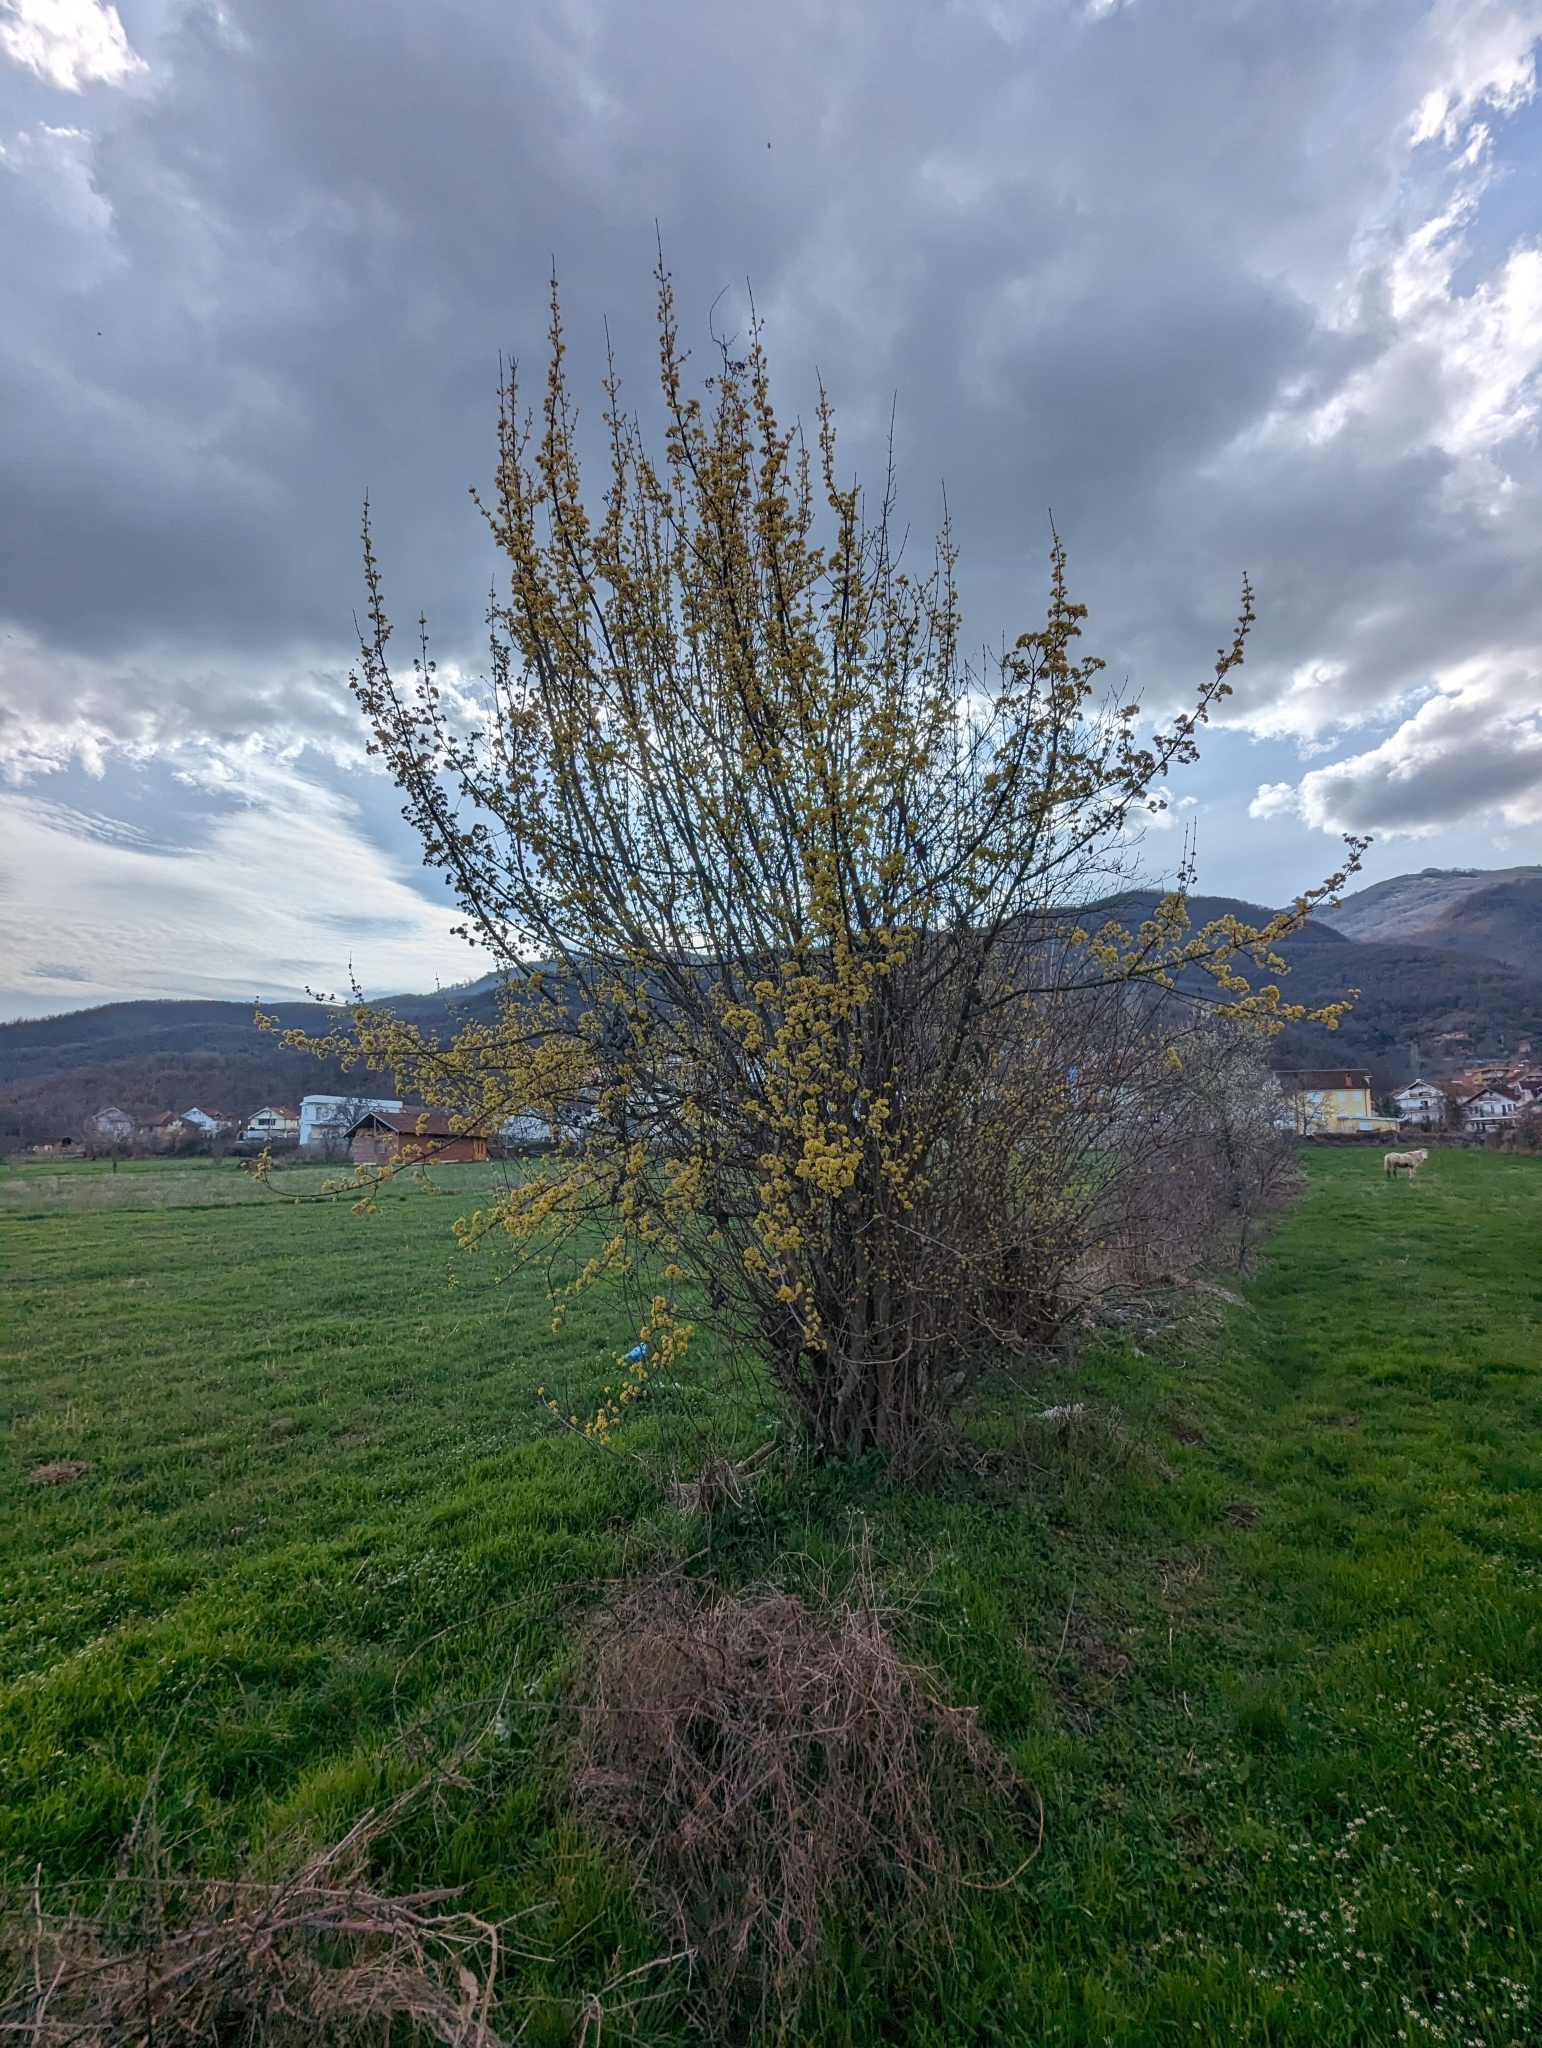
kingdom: Plantae
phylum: Tracheophyta
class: Magnoliopsida
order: Cornales
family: Cornaceae
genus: Cornus
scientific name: Cornus mas
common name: Cornelian-cherry
